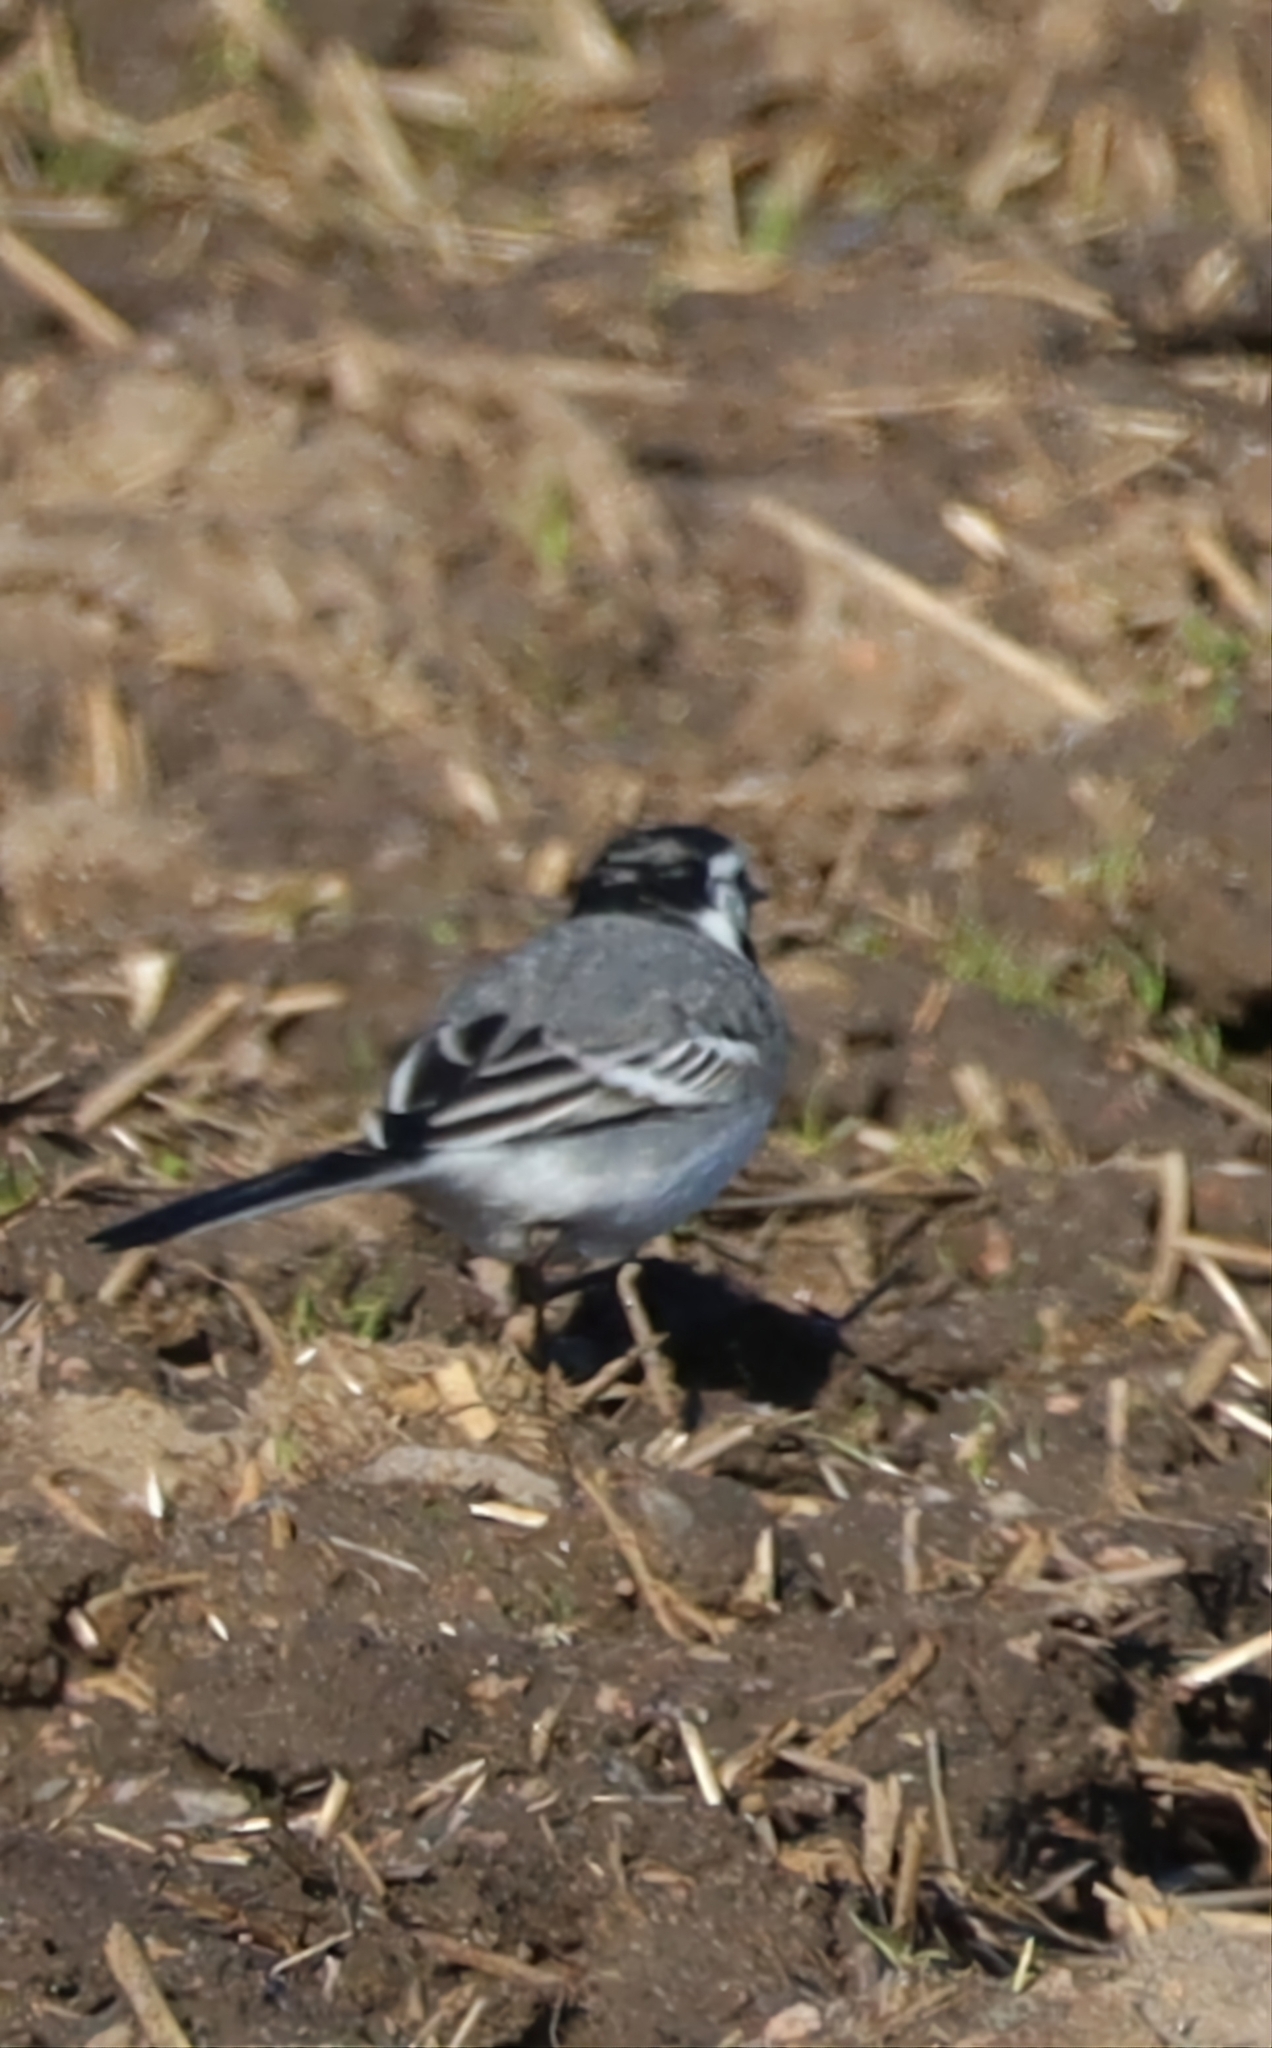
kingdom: Animalia
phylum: Chordata
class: Aves
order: Passeriformes
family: Motacillidae
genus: Motacilla
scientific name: Motacilla alba
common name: White wagtail
